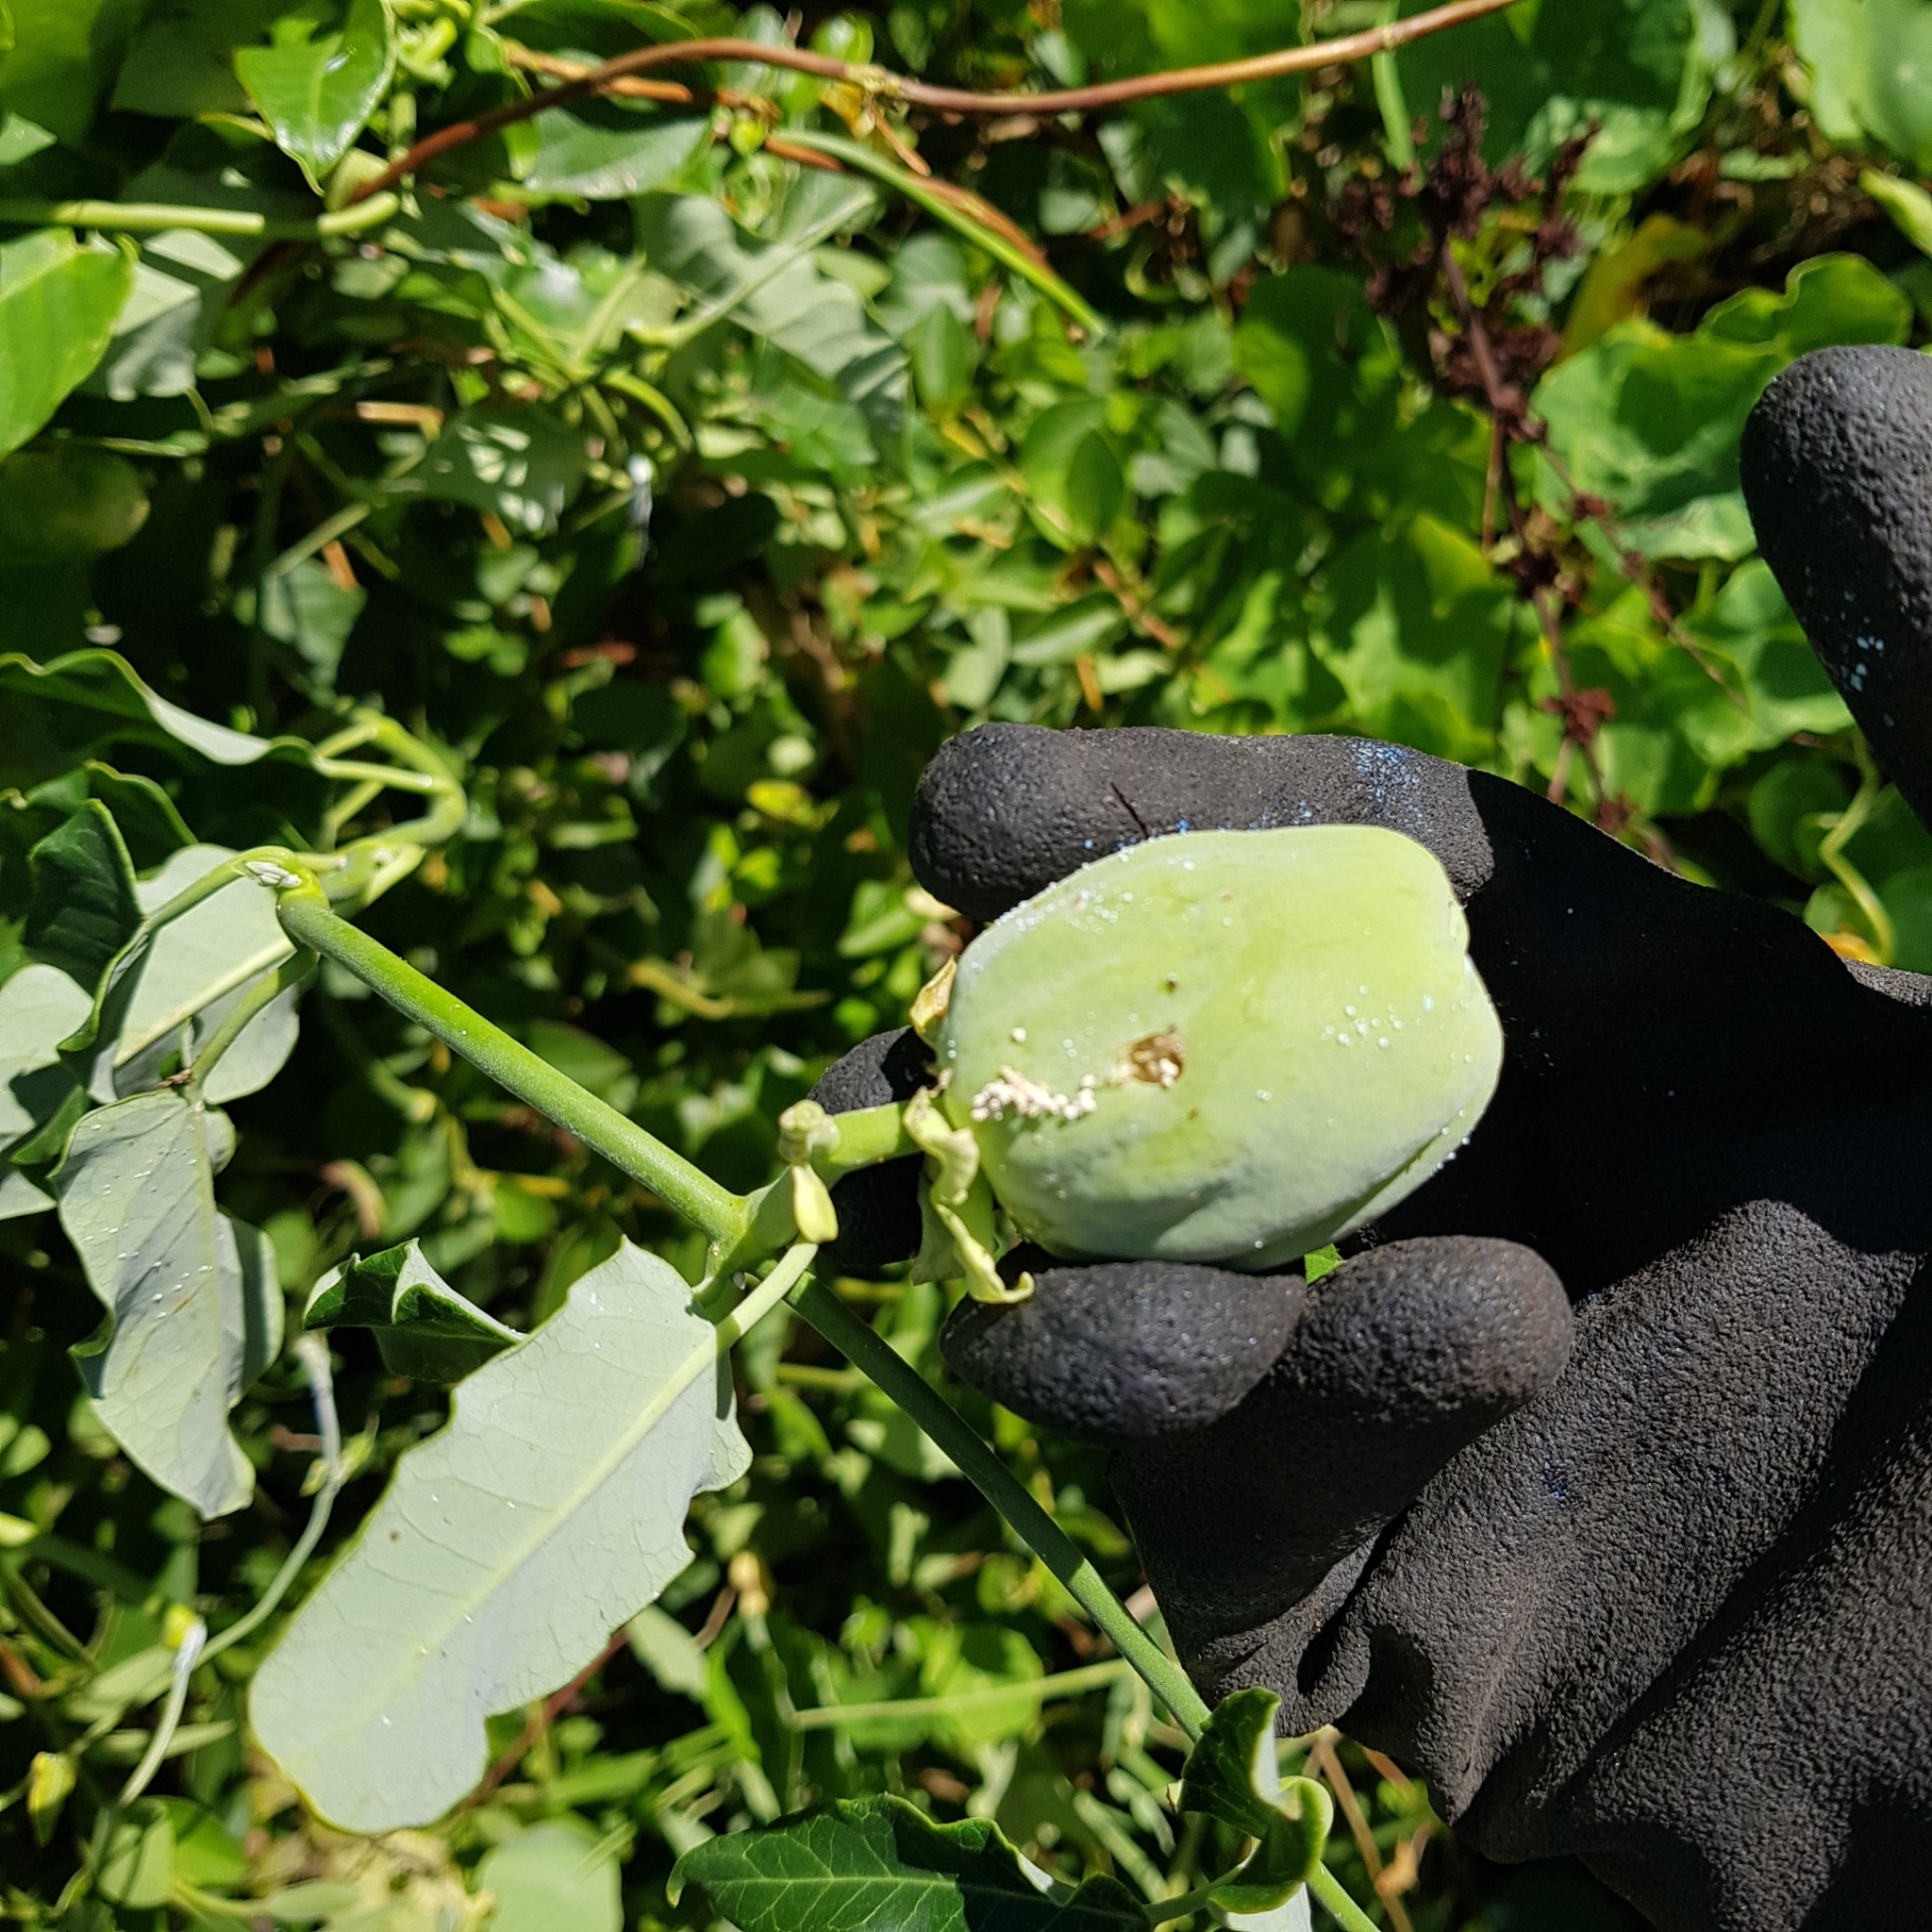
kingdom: Plantae
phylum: Tracheophyta
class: Magnoliopsida
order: Gentianales
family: Apocynaceae
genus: Araujia
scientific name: Araujia sericifera
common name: White bladderflower
